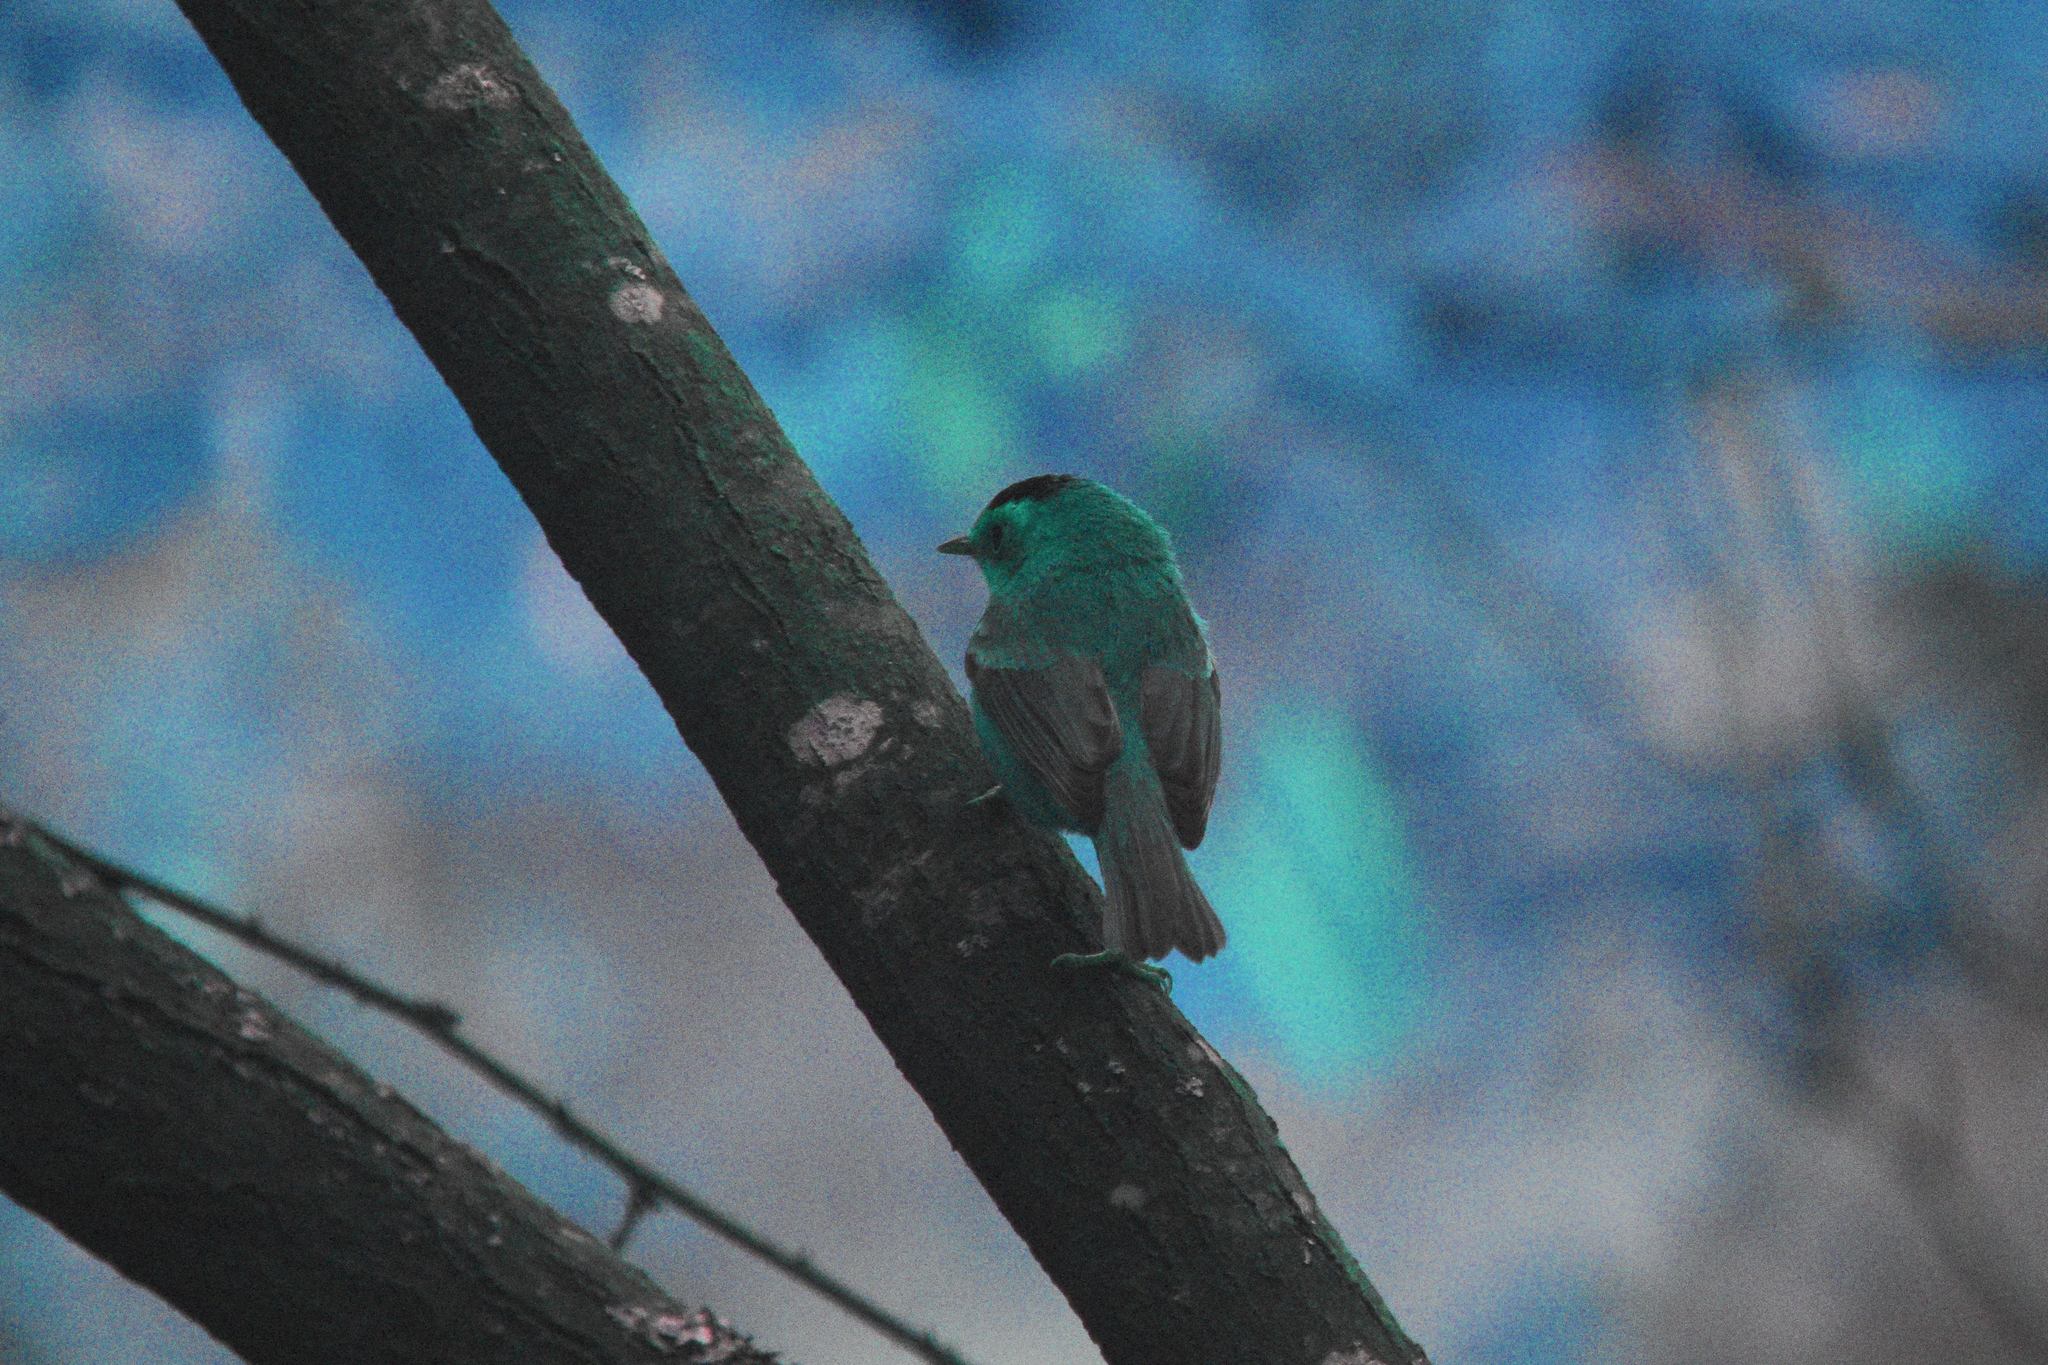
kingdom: Animalia
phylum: Chordata
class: Aves
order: Passeriformes
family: Parulidae
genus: Cardellina
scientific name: Cardellina pusilla
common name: Wilson's warbler
